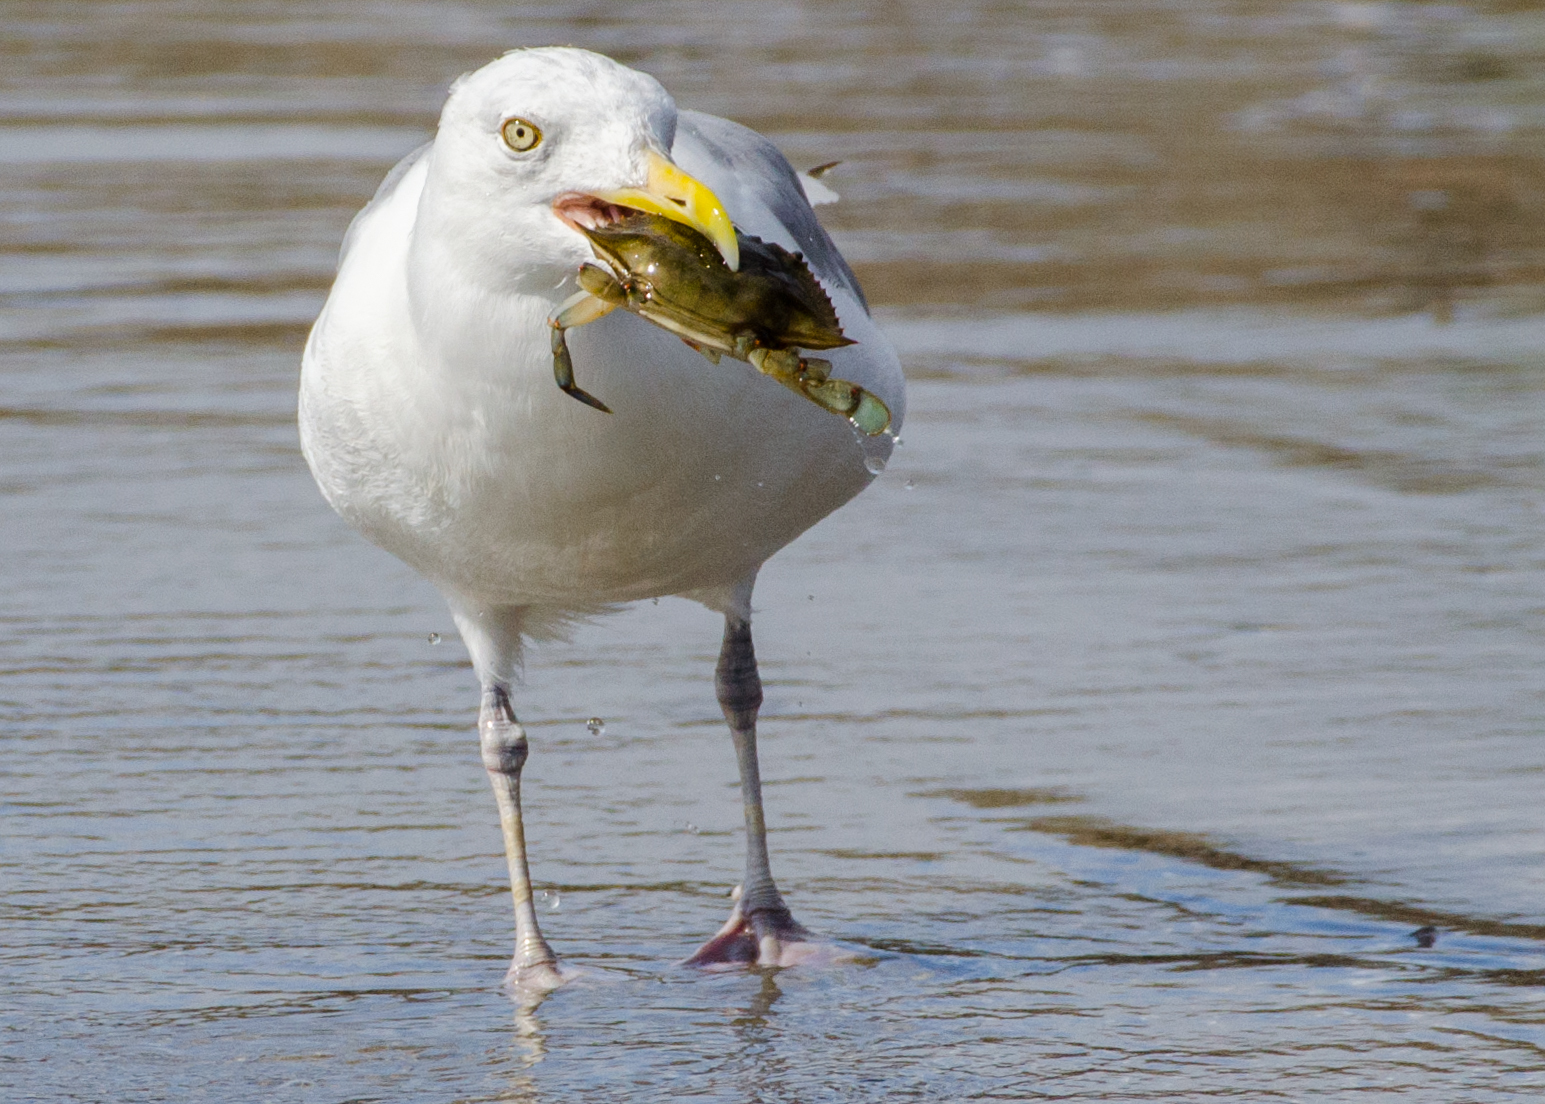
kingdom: Animalia
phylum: Chordata
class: Aves
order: Charadriiformes
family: Laridae
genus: Larus
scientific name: Larus argentatus
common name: Herring gull
